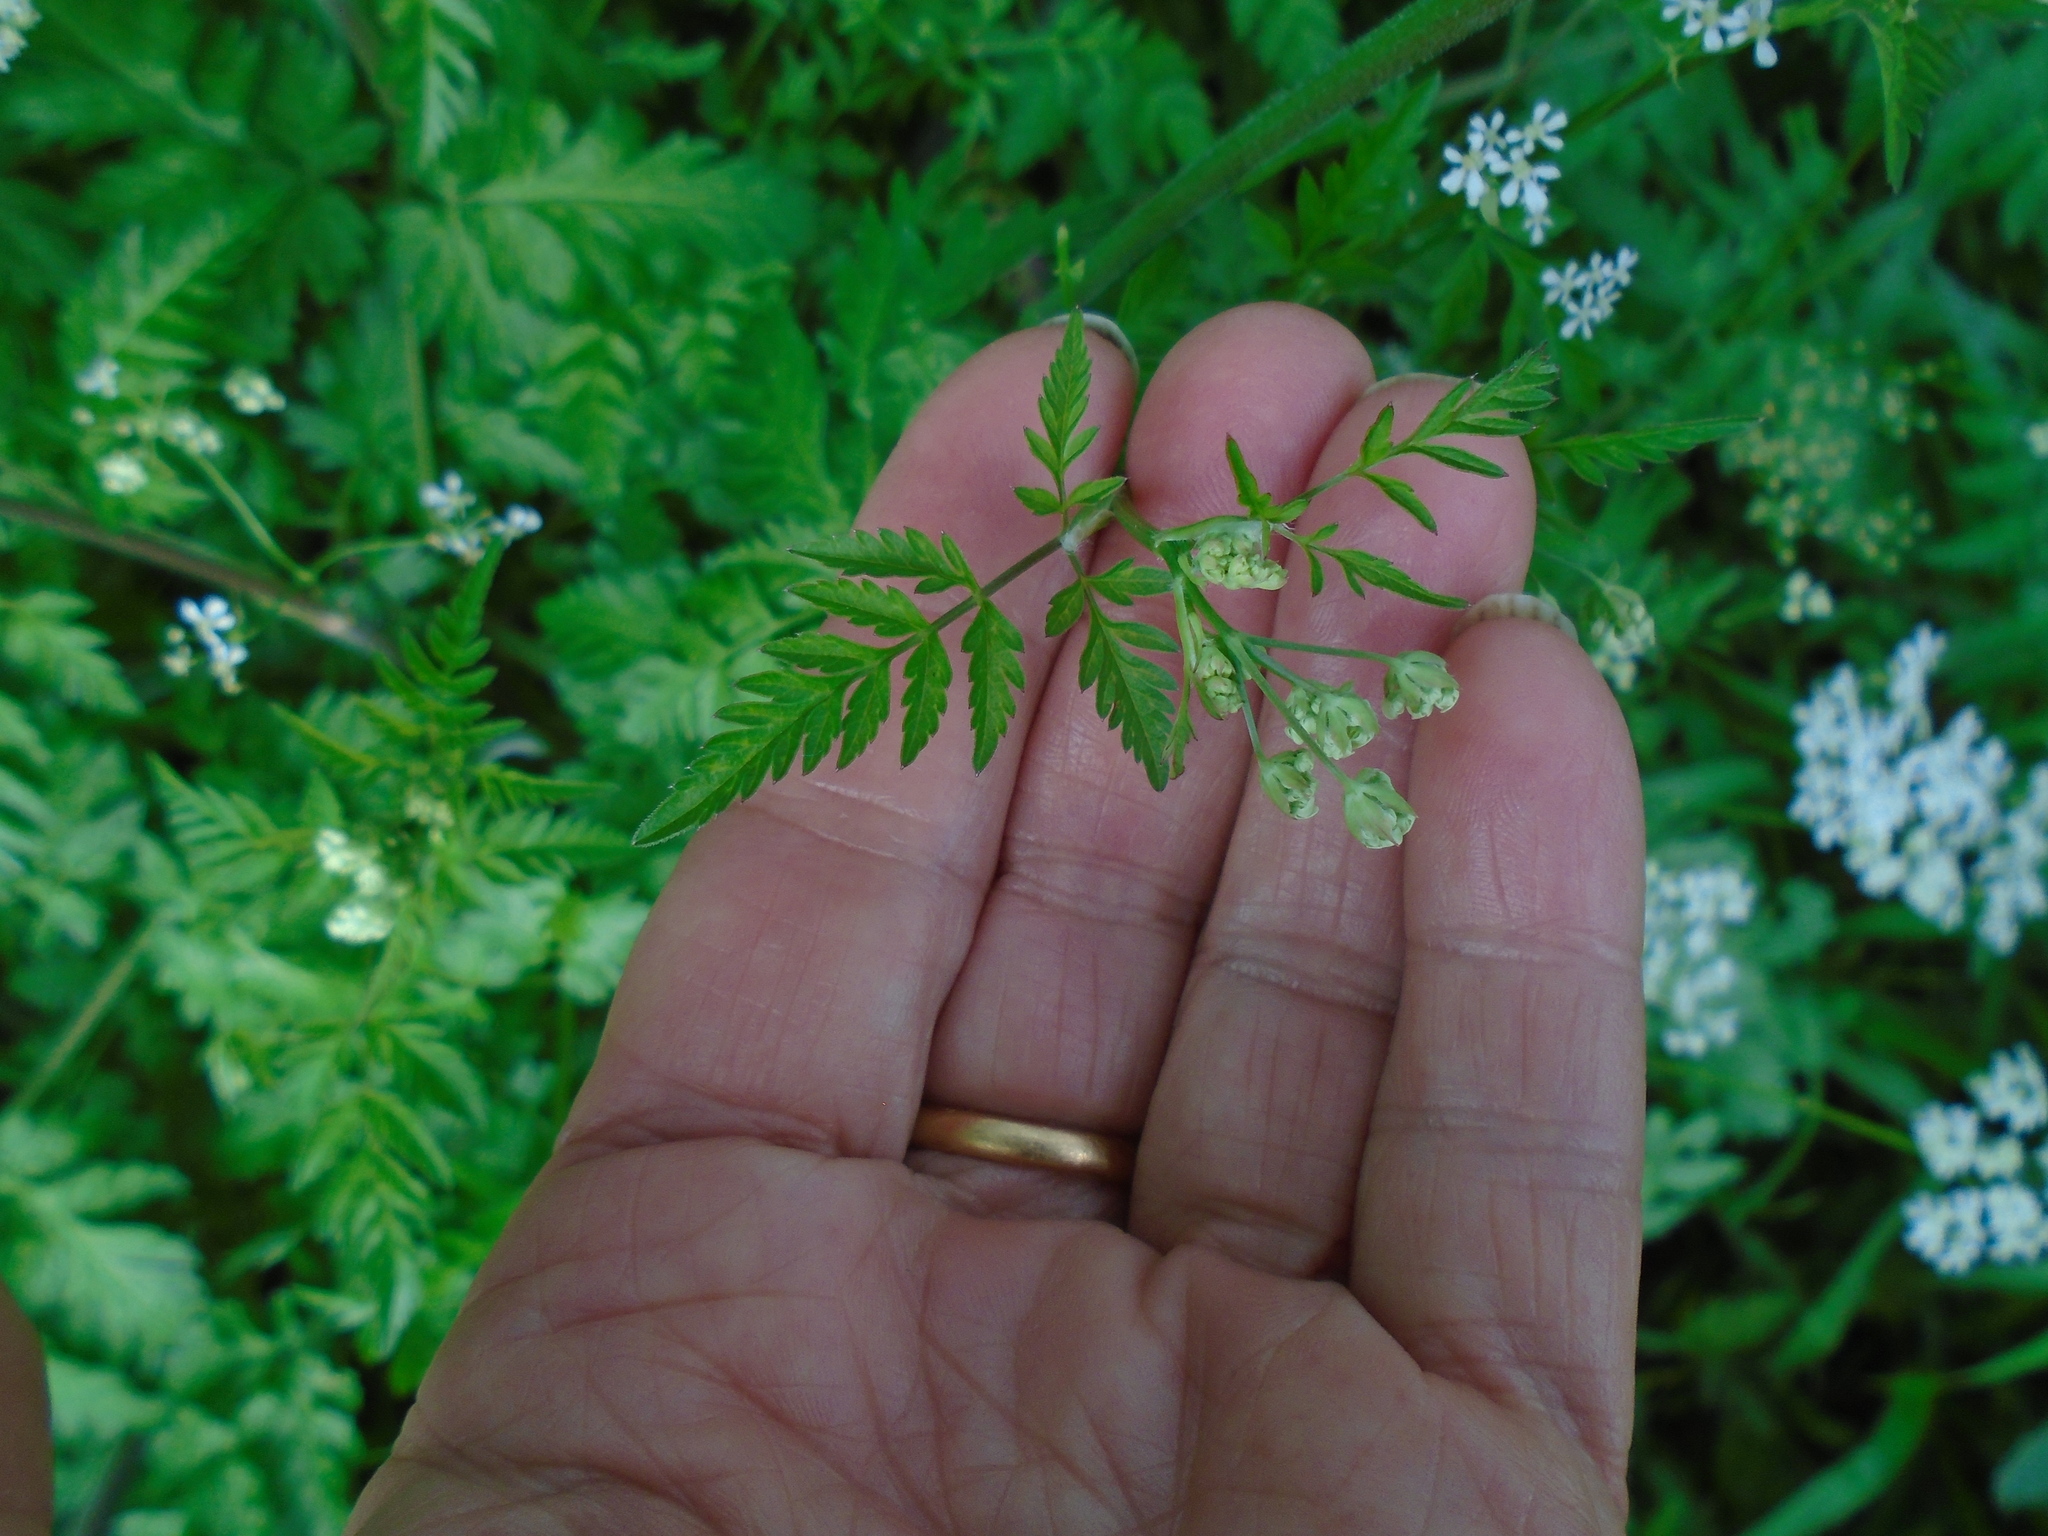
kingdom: Plantae
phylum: Tracheophyta
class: Magnoliopsida
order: Apiales
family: Apiaceae
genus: Anthriscus
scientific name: Anthriscus sylvestris
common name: Cow parsley
